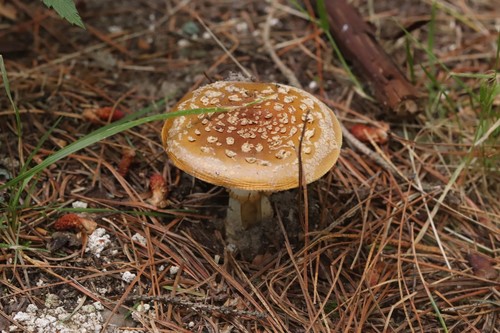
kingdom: Fungi
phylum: Basidiomycota
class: Agaricomycetes
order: Agaricales
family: Amanitaceae
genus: Amanita
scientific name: Amanita regalis
